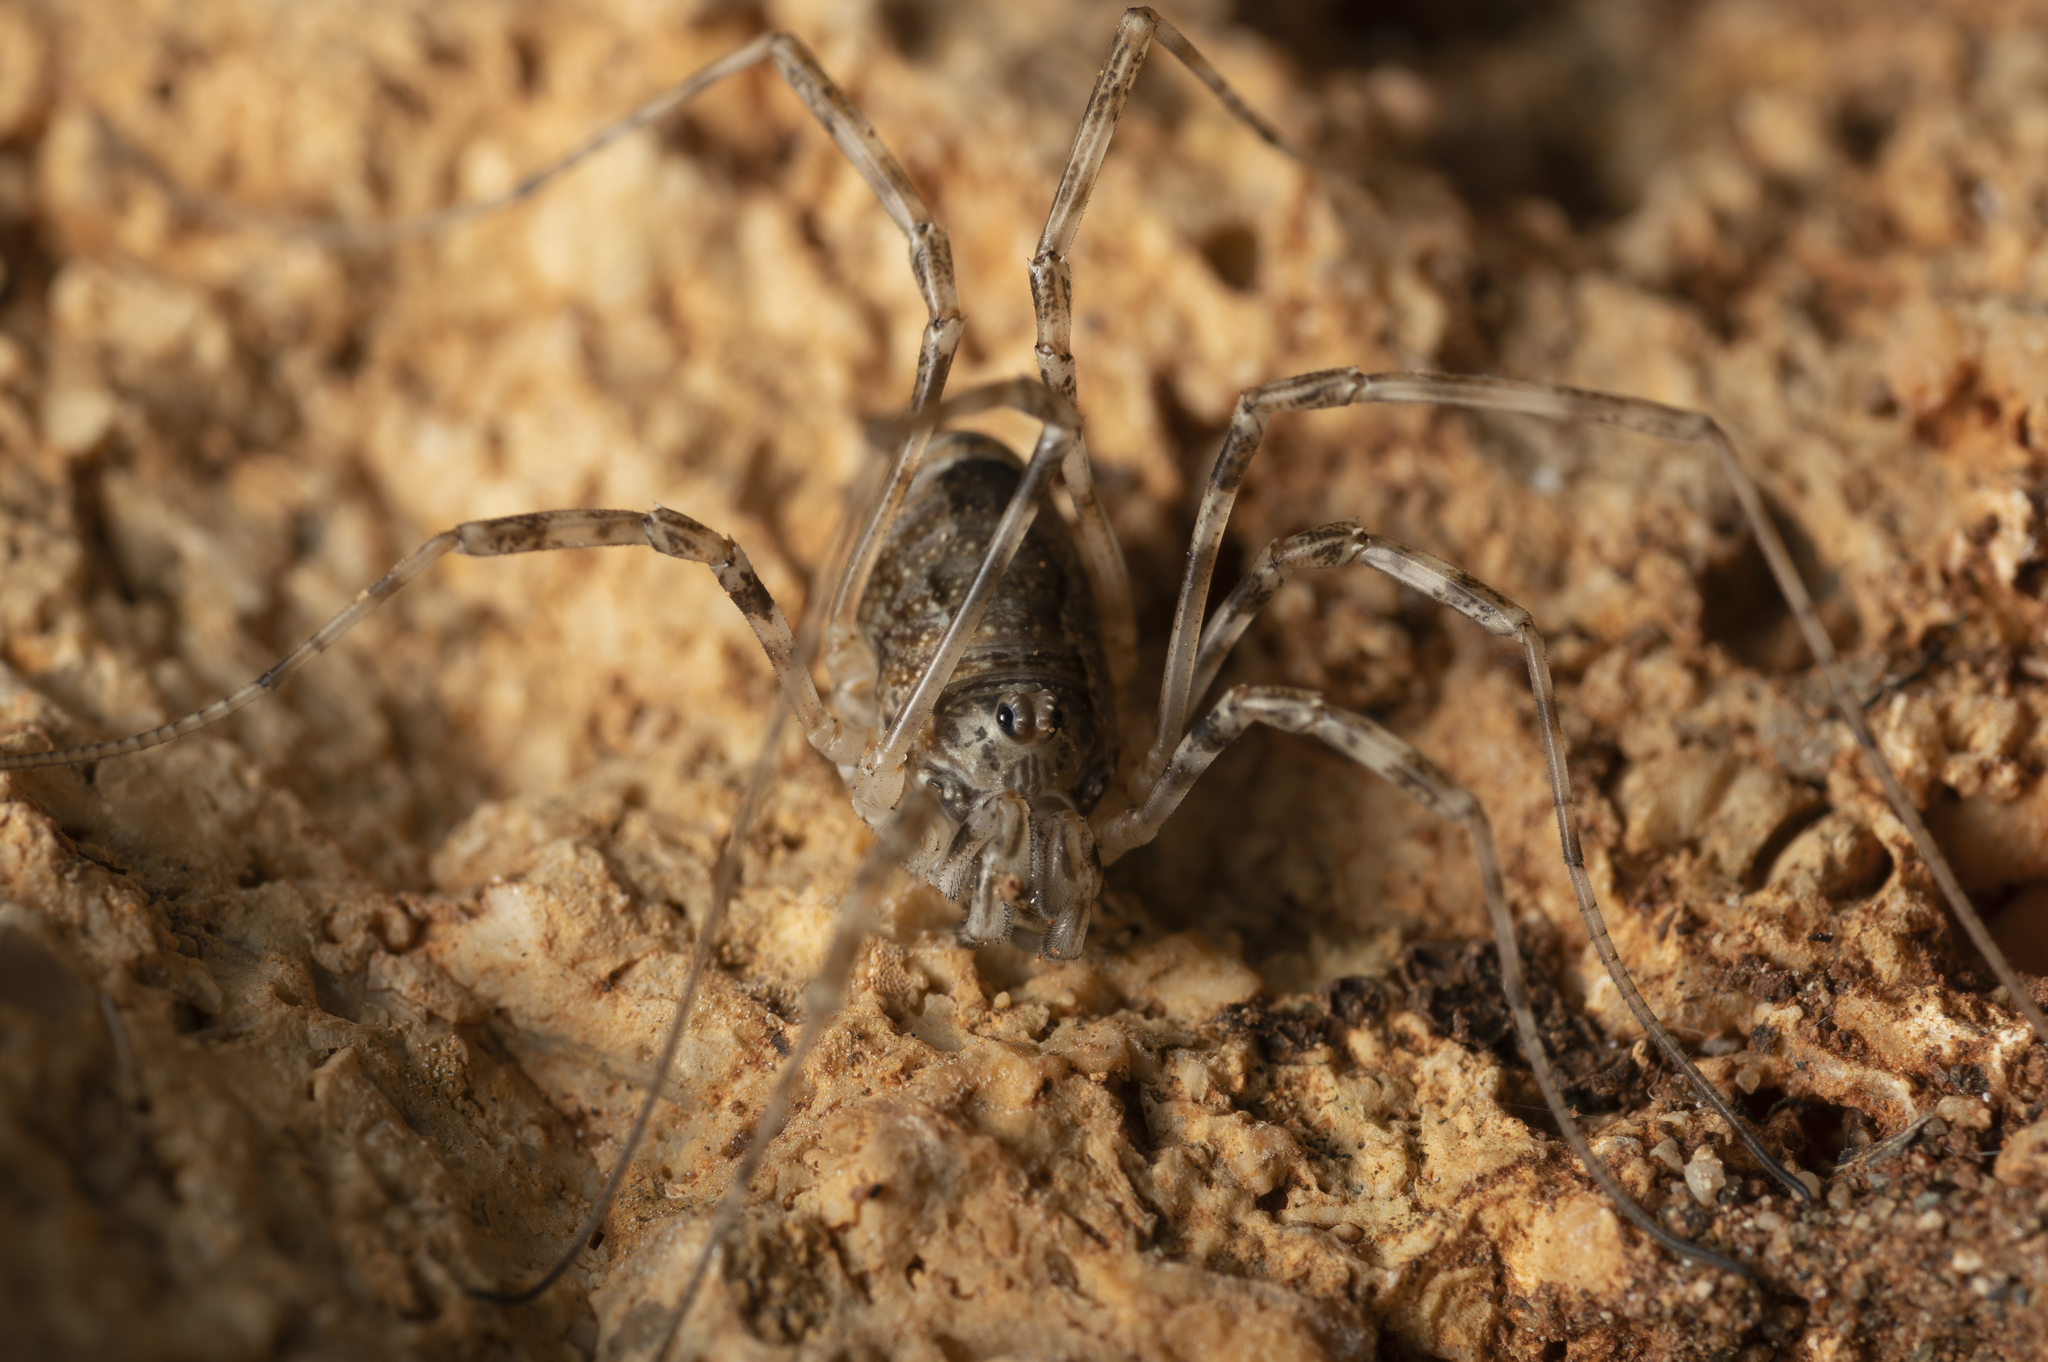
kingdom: Animalia
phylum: Arthropoda
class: Arachnida
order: Opiliones
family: Phalangiidae
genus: Rafalskia
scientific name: Rafalskia cretica
